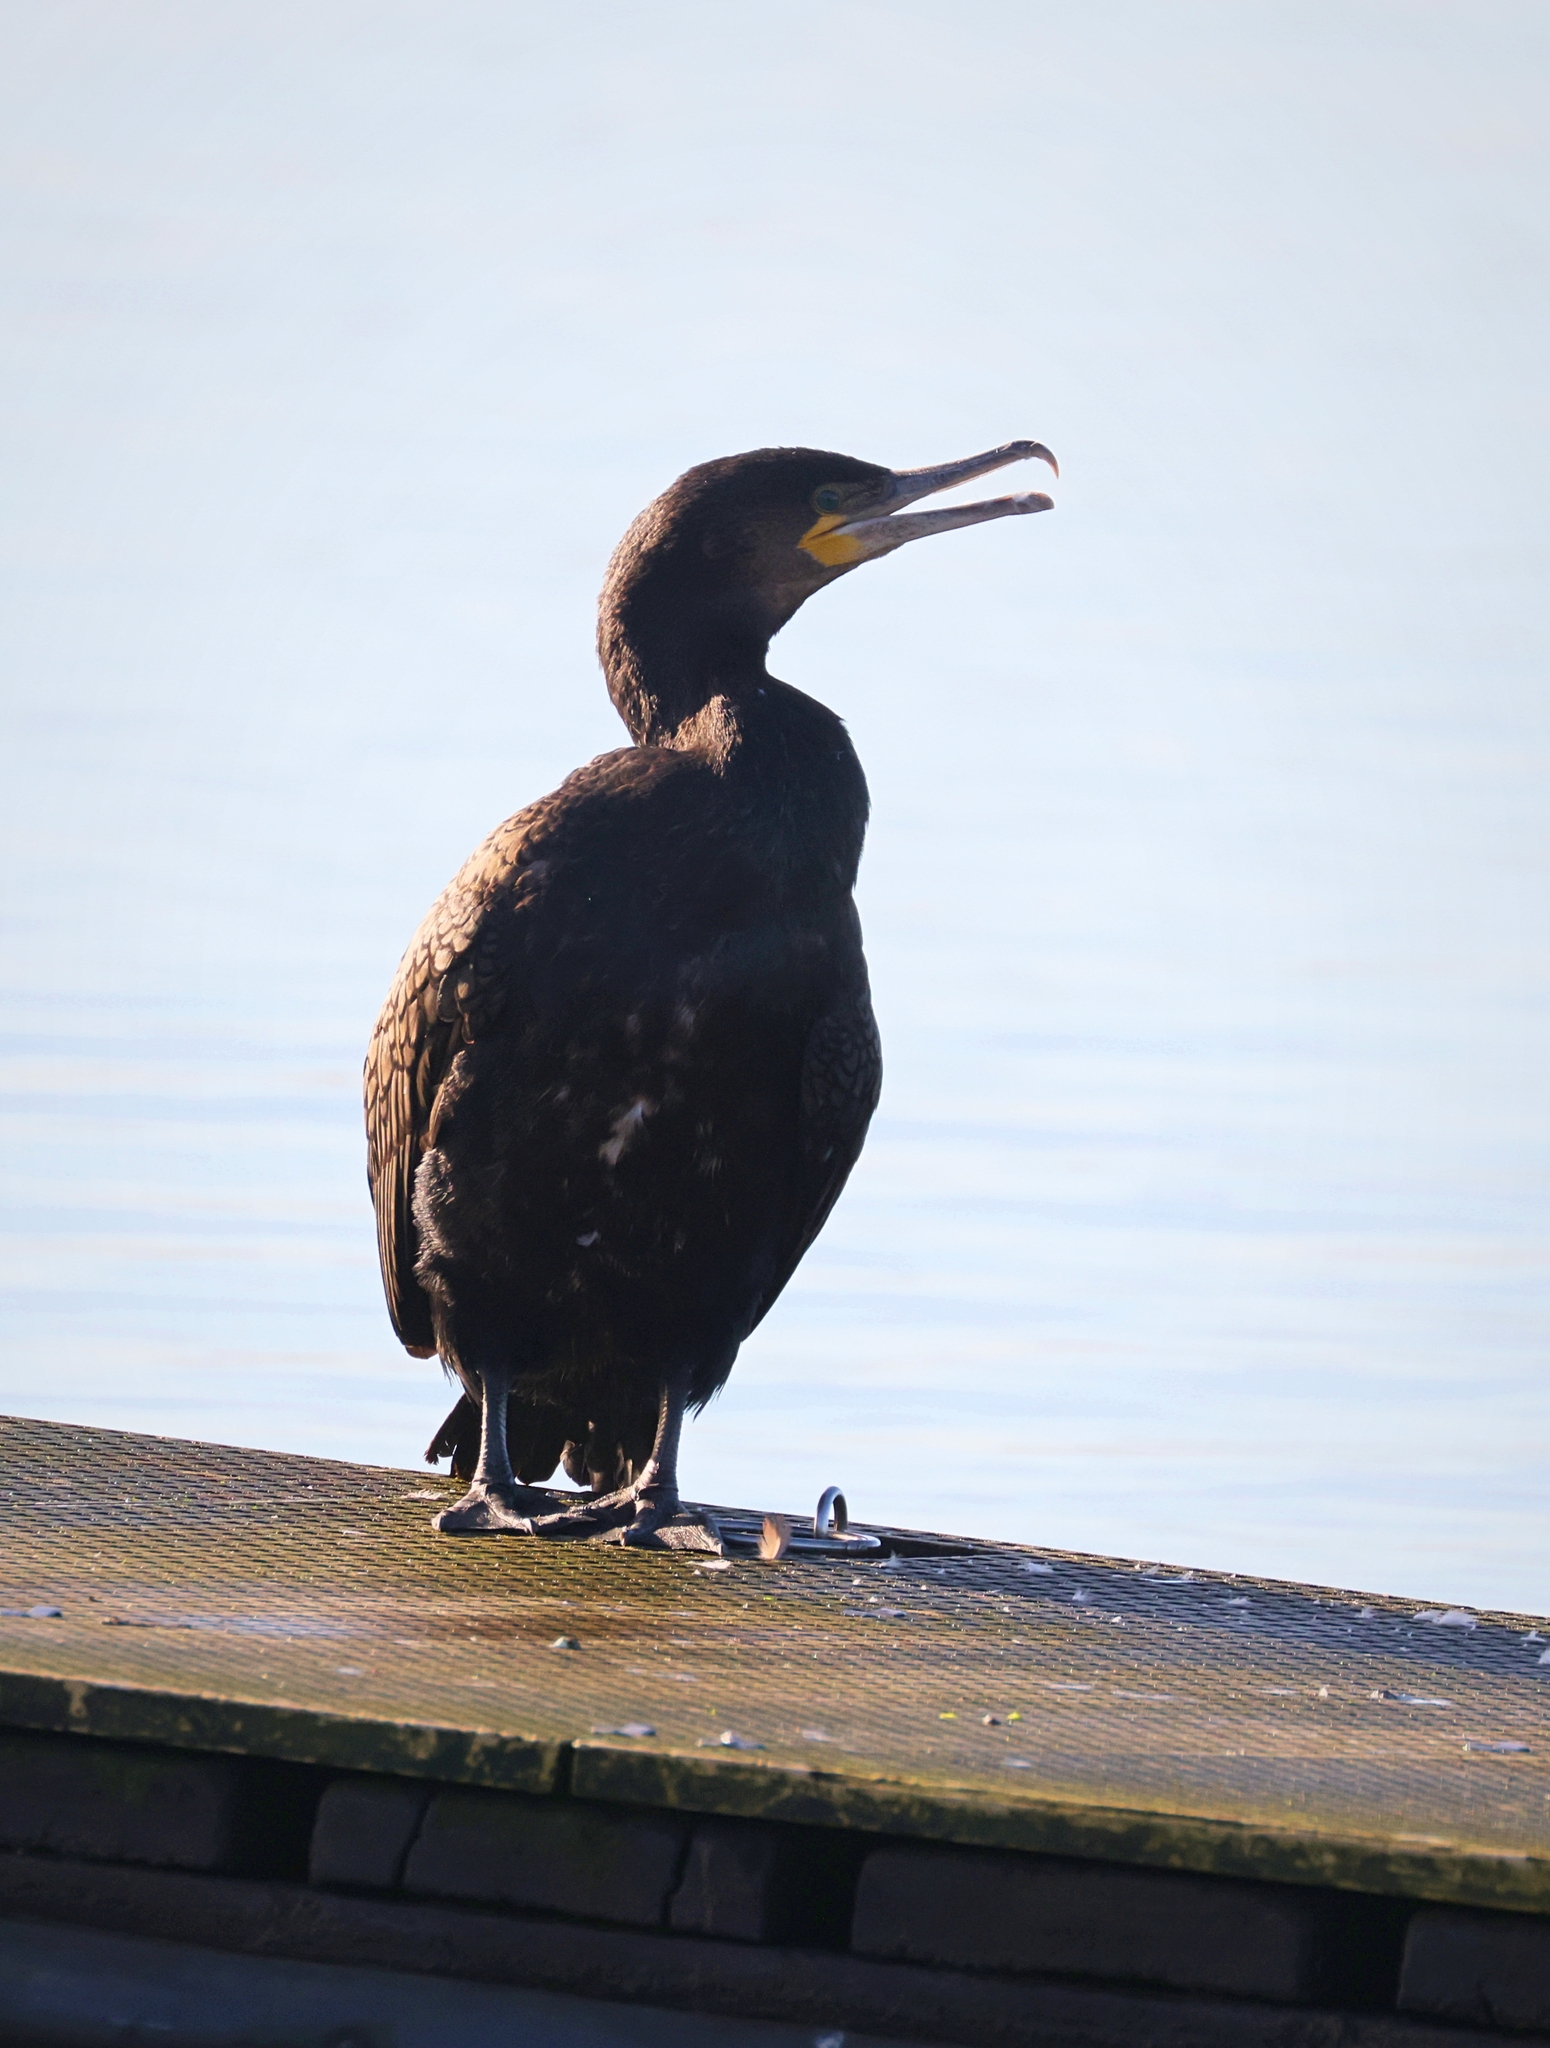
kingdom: Animalia
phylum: Chordata
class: Aves
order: Suliformes
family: Phalacrocoracidae
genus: Phalacrocorax
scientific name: Phalacrocorax carbo
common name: Great cormorant
